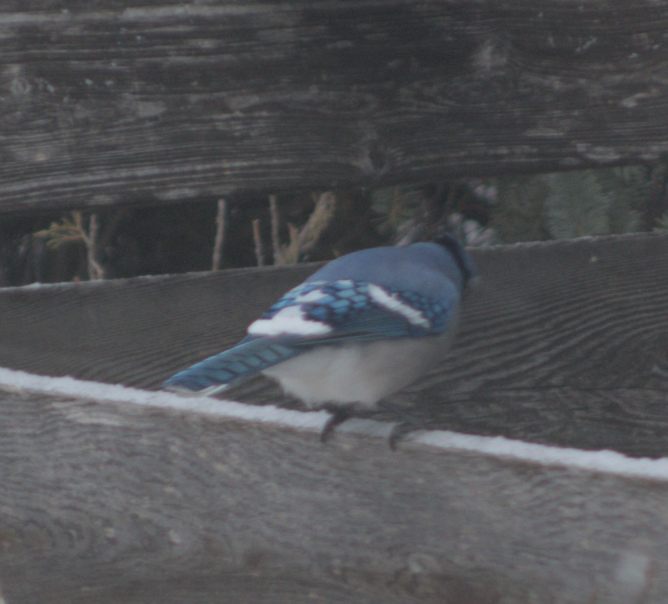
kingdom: Animalia
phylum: Chordata
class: Aves
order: Passeriformes
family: Corvidae
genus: Cyanocitta
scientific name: Cyanocitta cristata
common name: Blue jay
